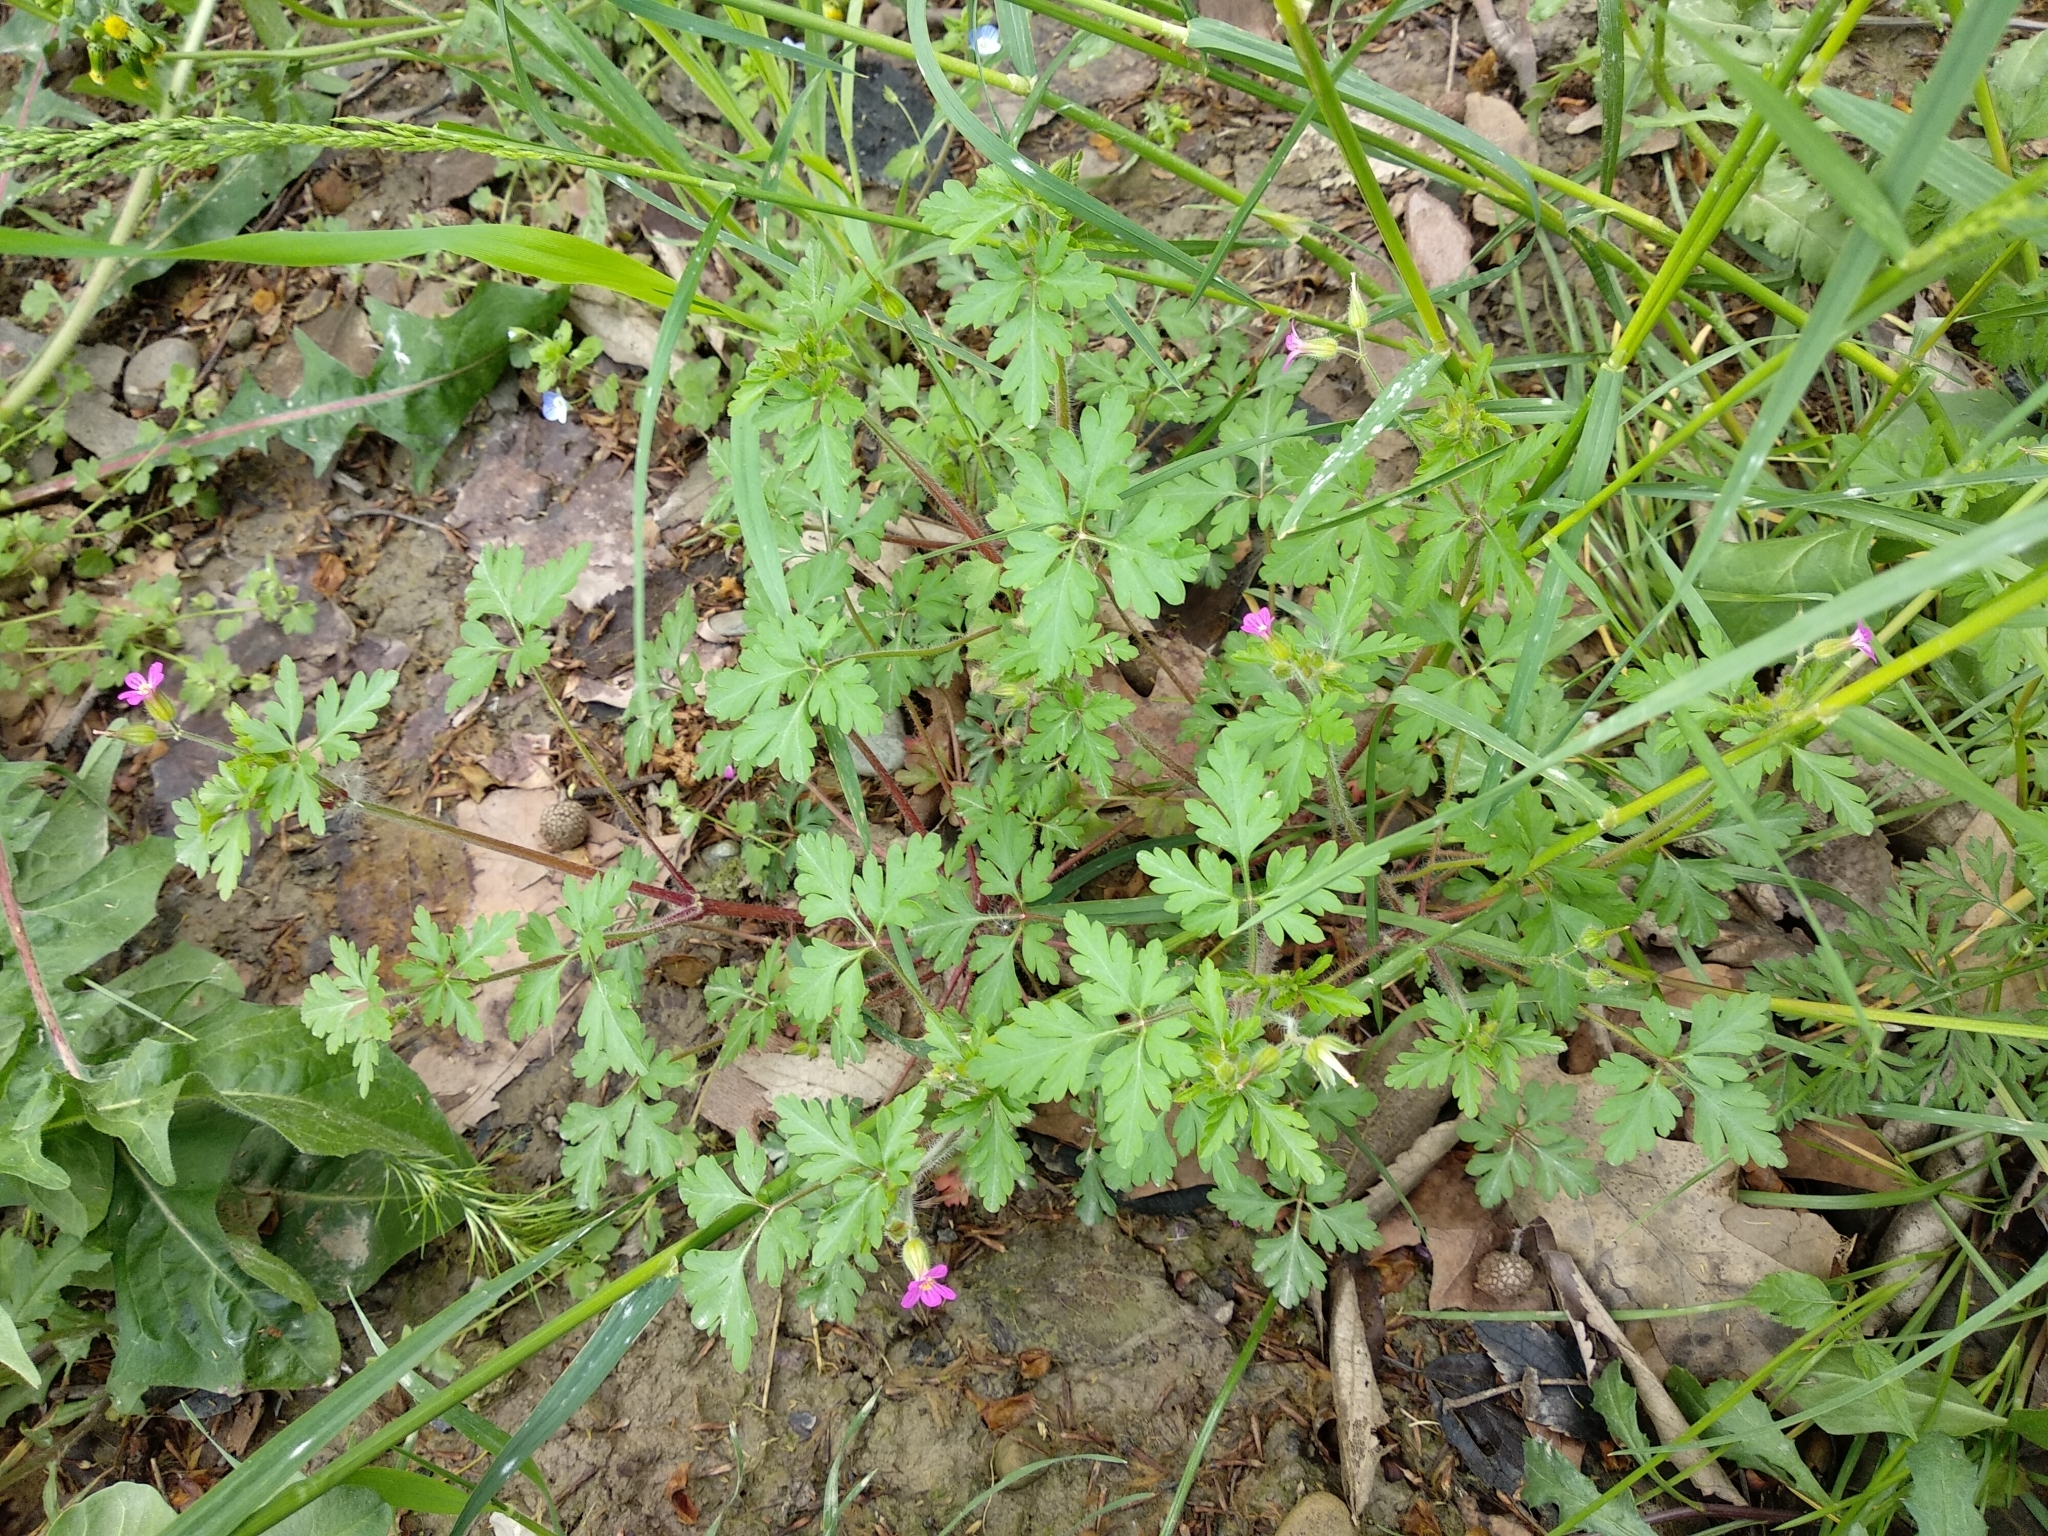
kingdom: Plantae
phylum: Tracheophyta
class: Magnoliopsida
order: Geraniales
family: Geraniaceae
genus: Geranium
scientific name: Geranium purpureum
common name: Little-robin
